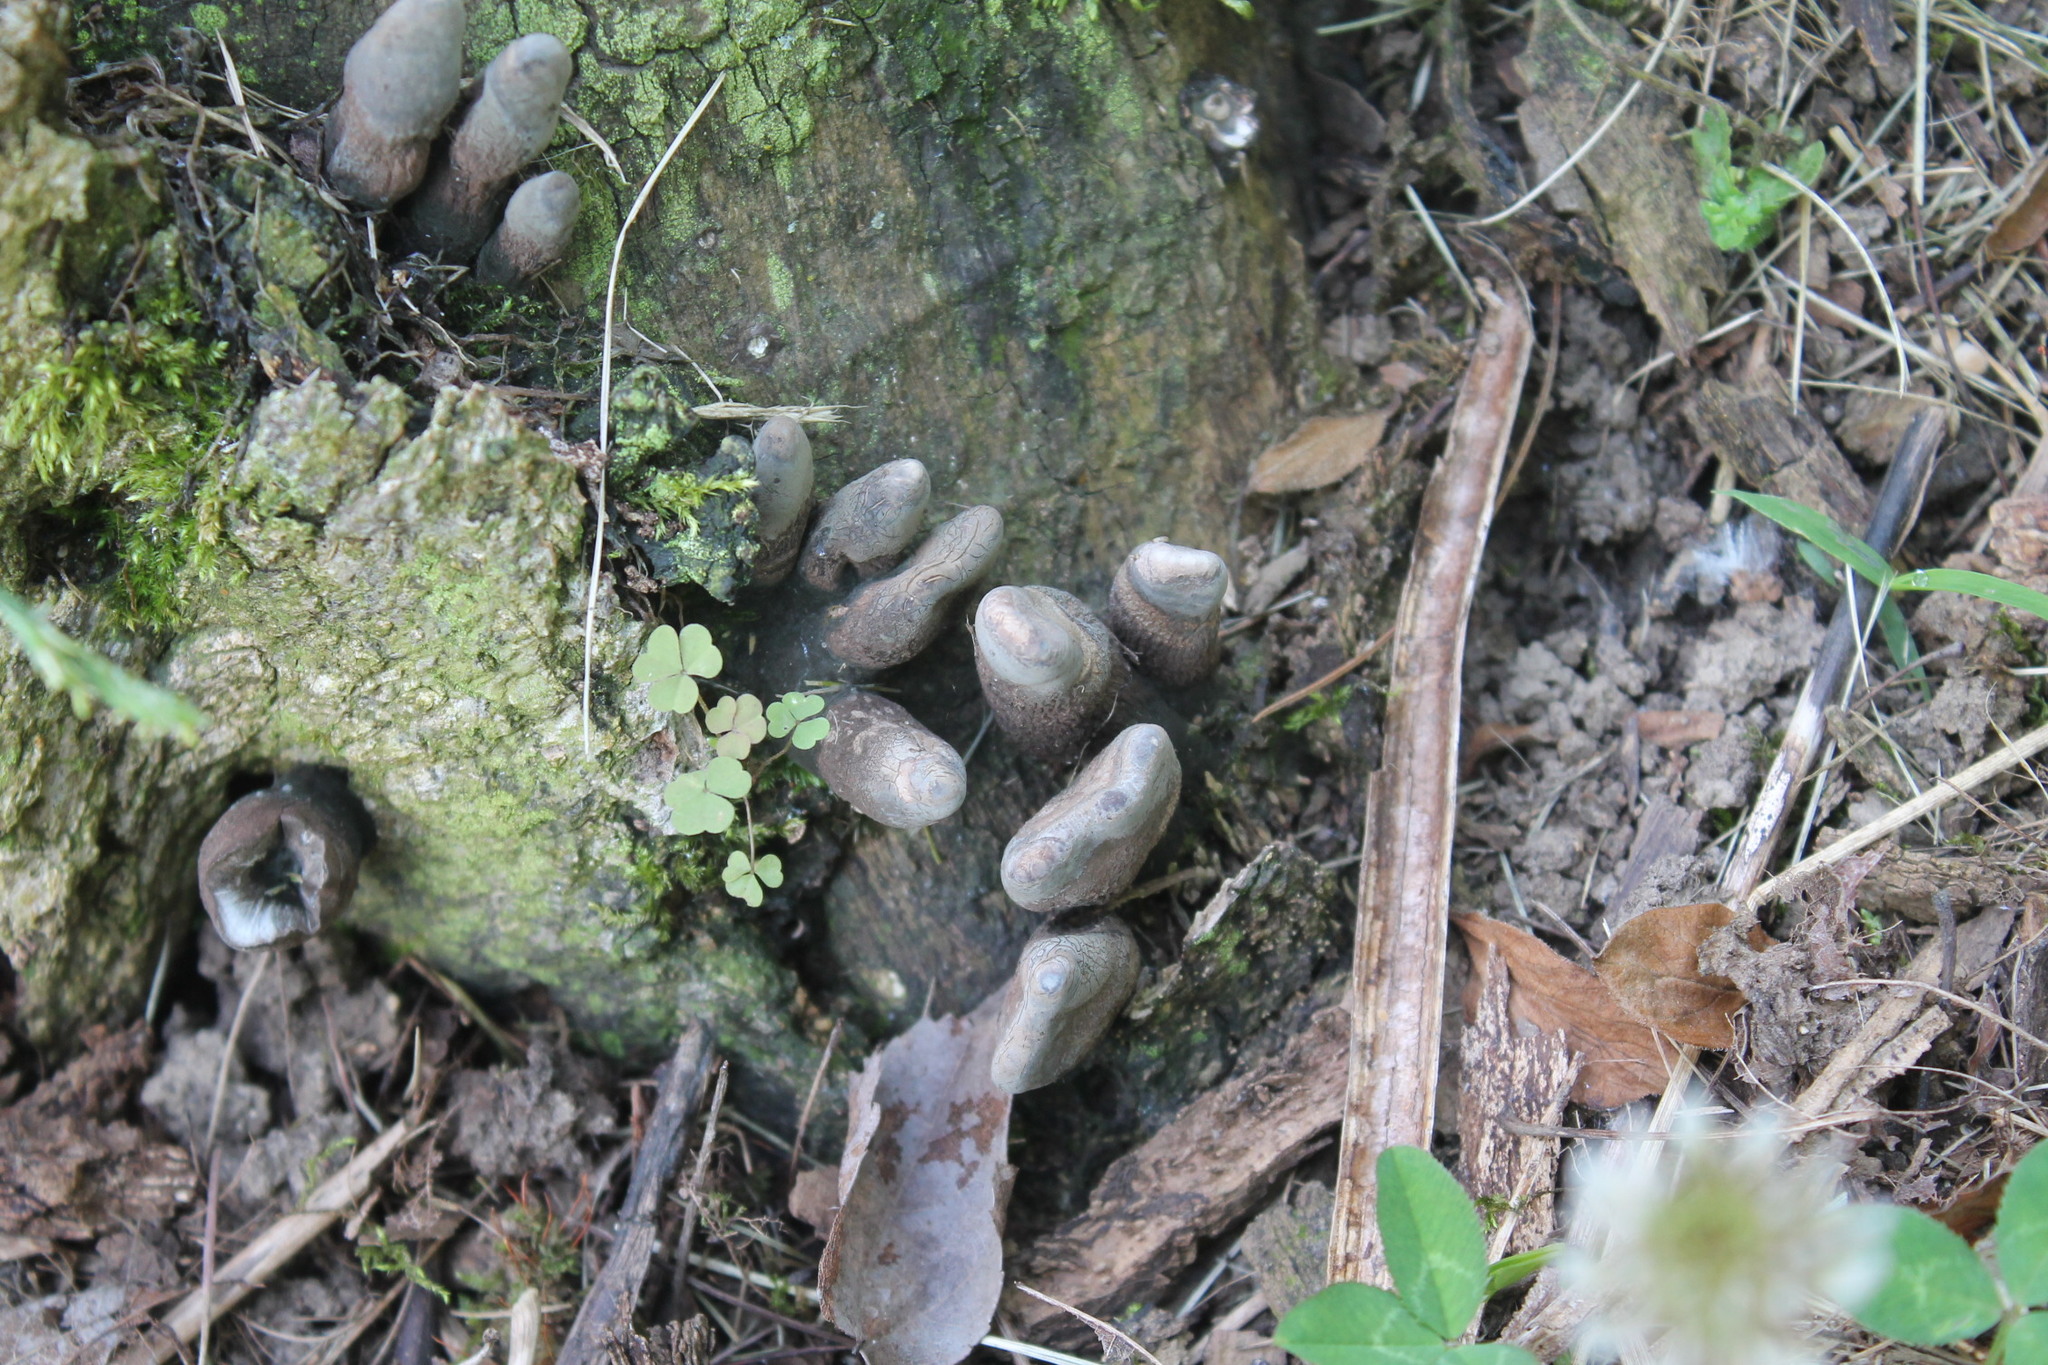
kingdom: Fungi
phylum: Ascomycota
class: Sordariomycetes
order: Xylariales
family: Xylariaceae
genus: Xylaria
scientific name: Xylaria polymorpha
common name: Dead man's fingers
